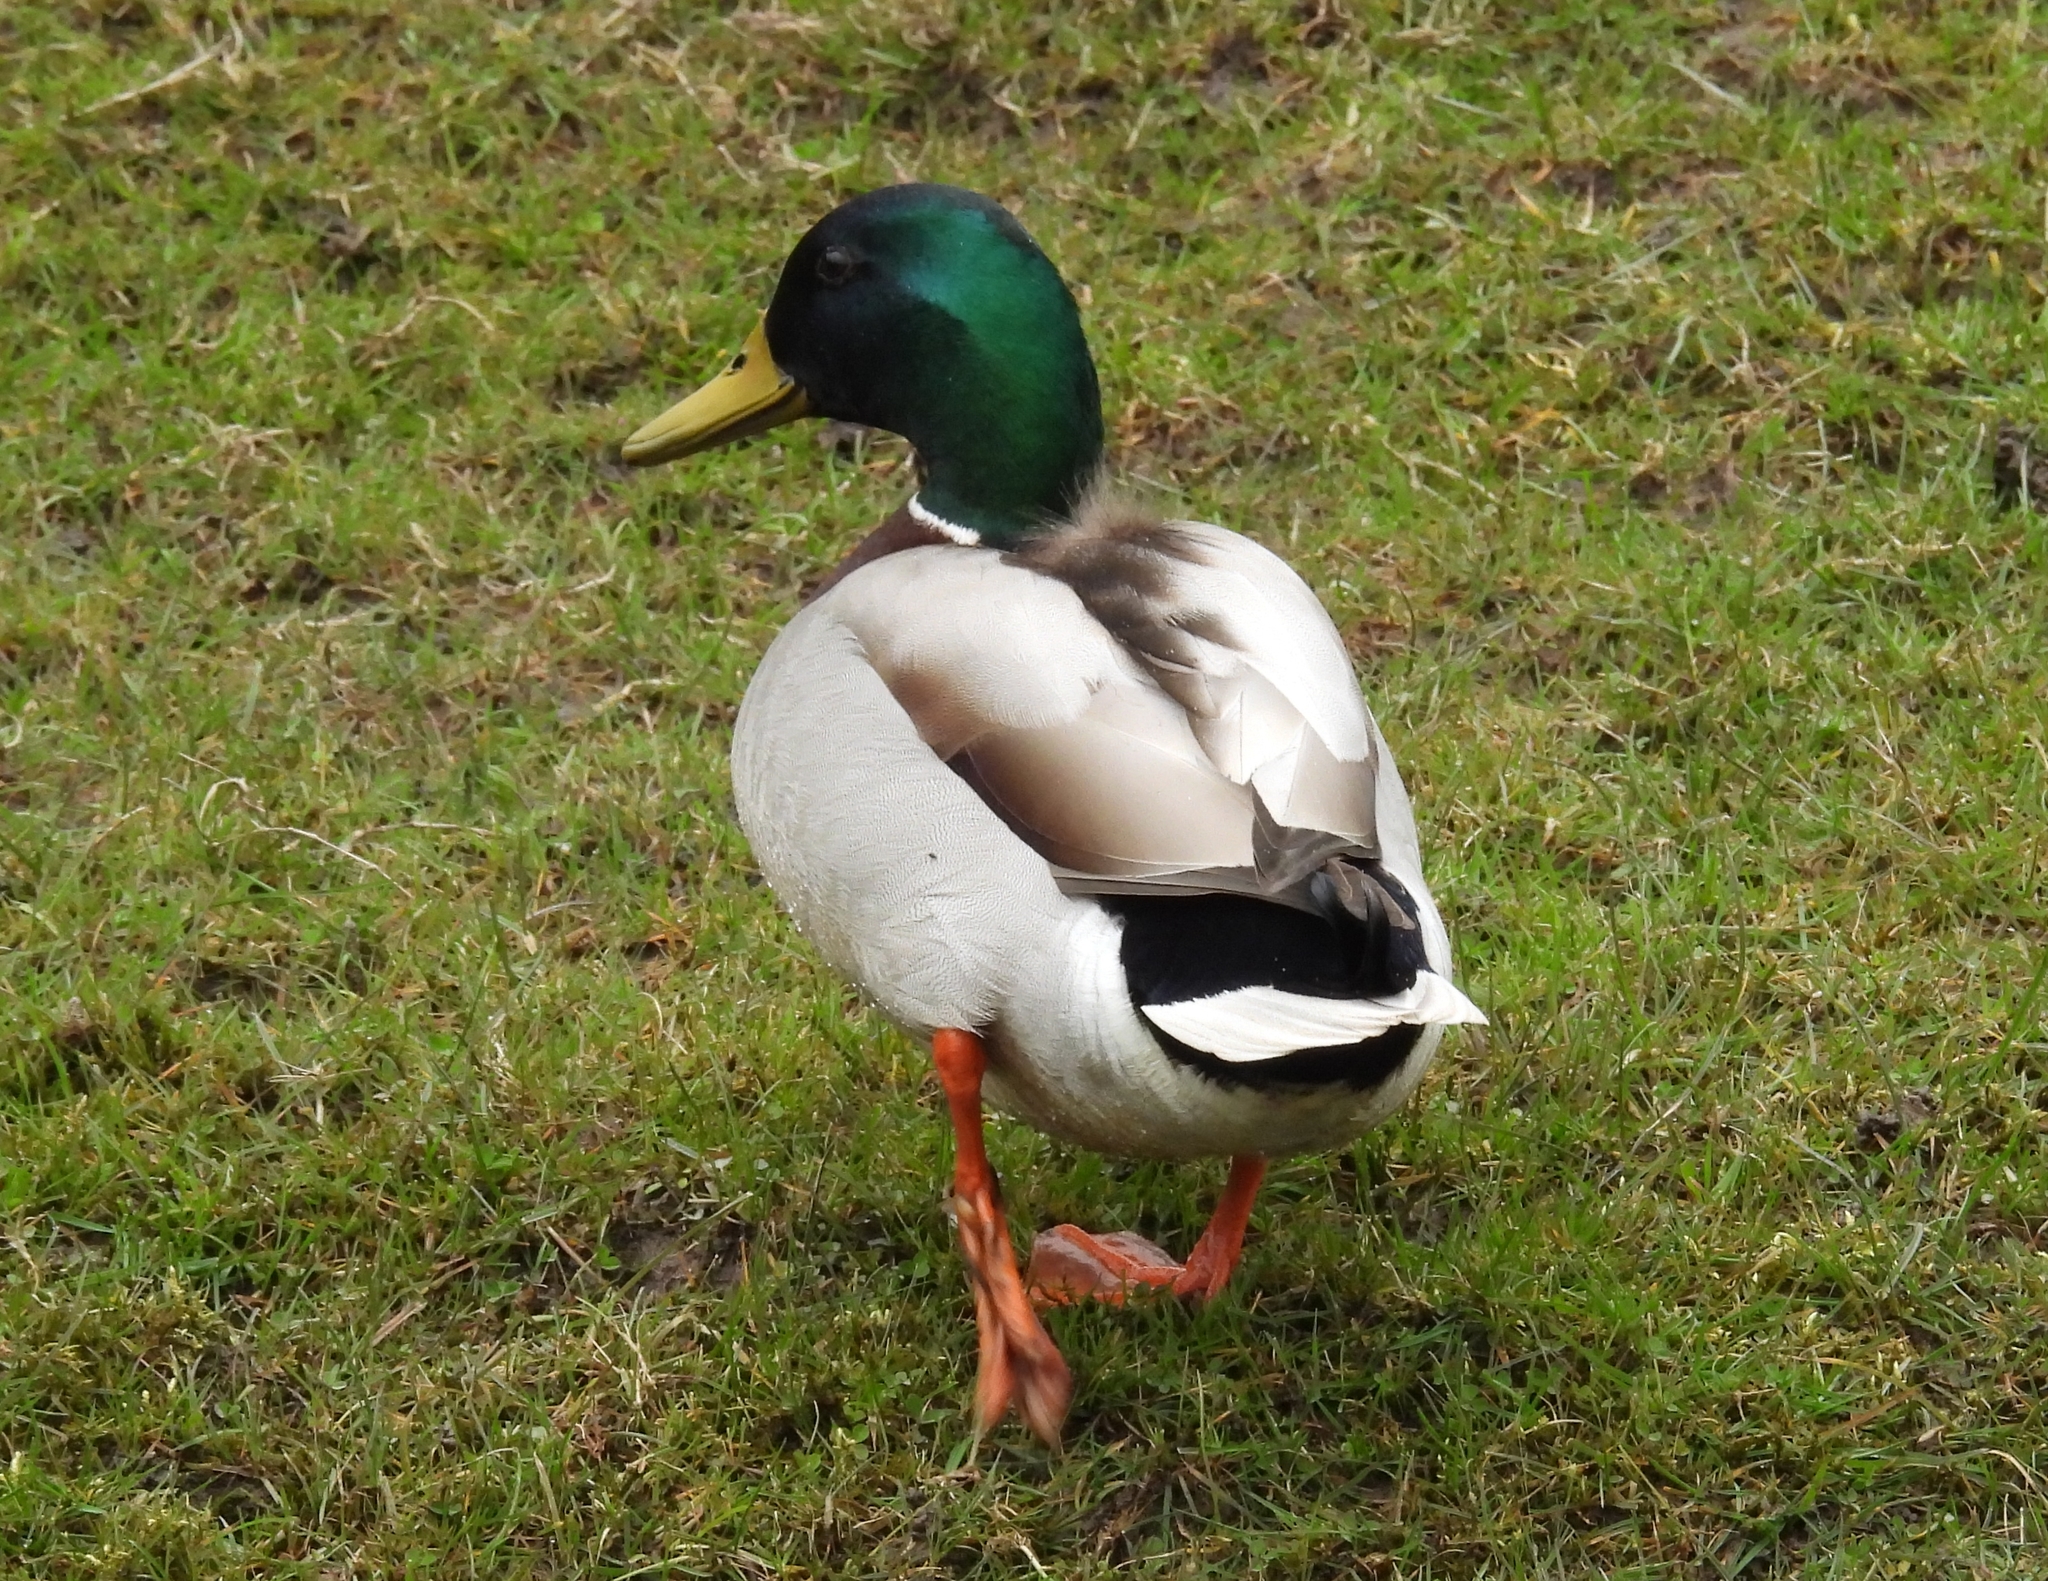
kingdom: Animalia
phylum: Chordata
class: Aves
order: Anseriformes
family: Anatidae
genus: Anas
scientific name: Anas platyrhynchos
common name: Mallard
